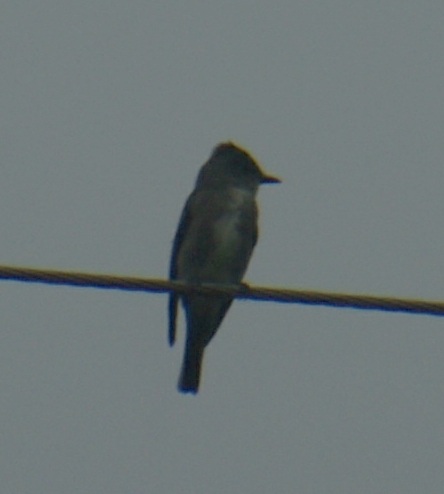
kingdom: Animalia
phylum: Chordata
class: Aves
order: Passeriformes
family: Tyrannidae
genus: Contopus
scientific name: Contopus cooperi
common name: Olive-sided flycatcher
